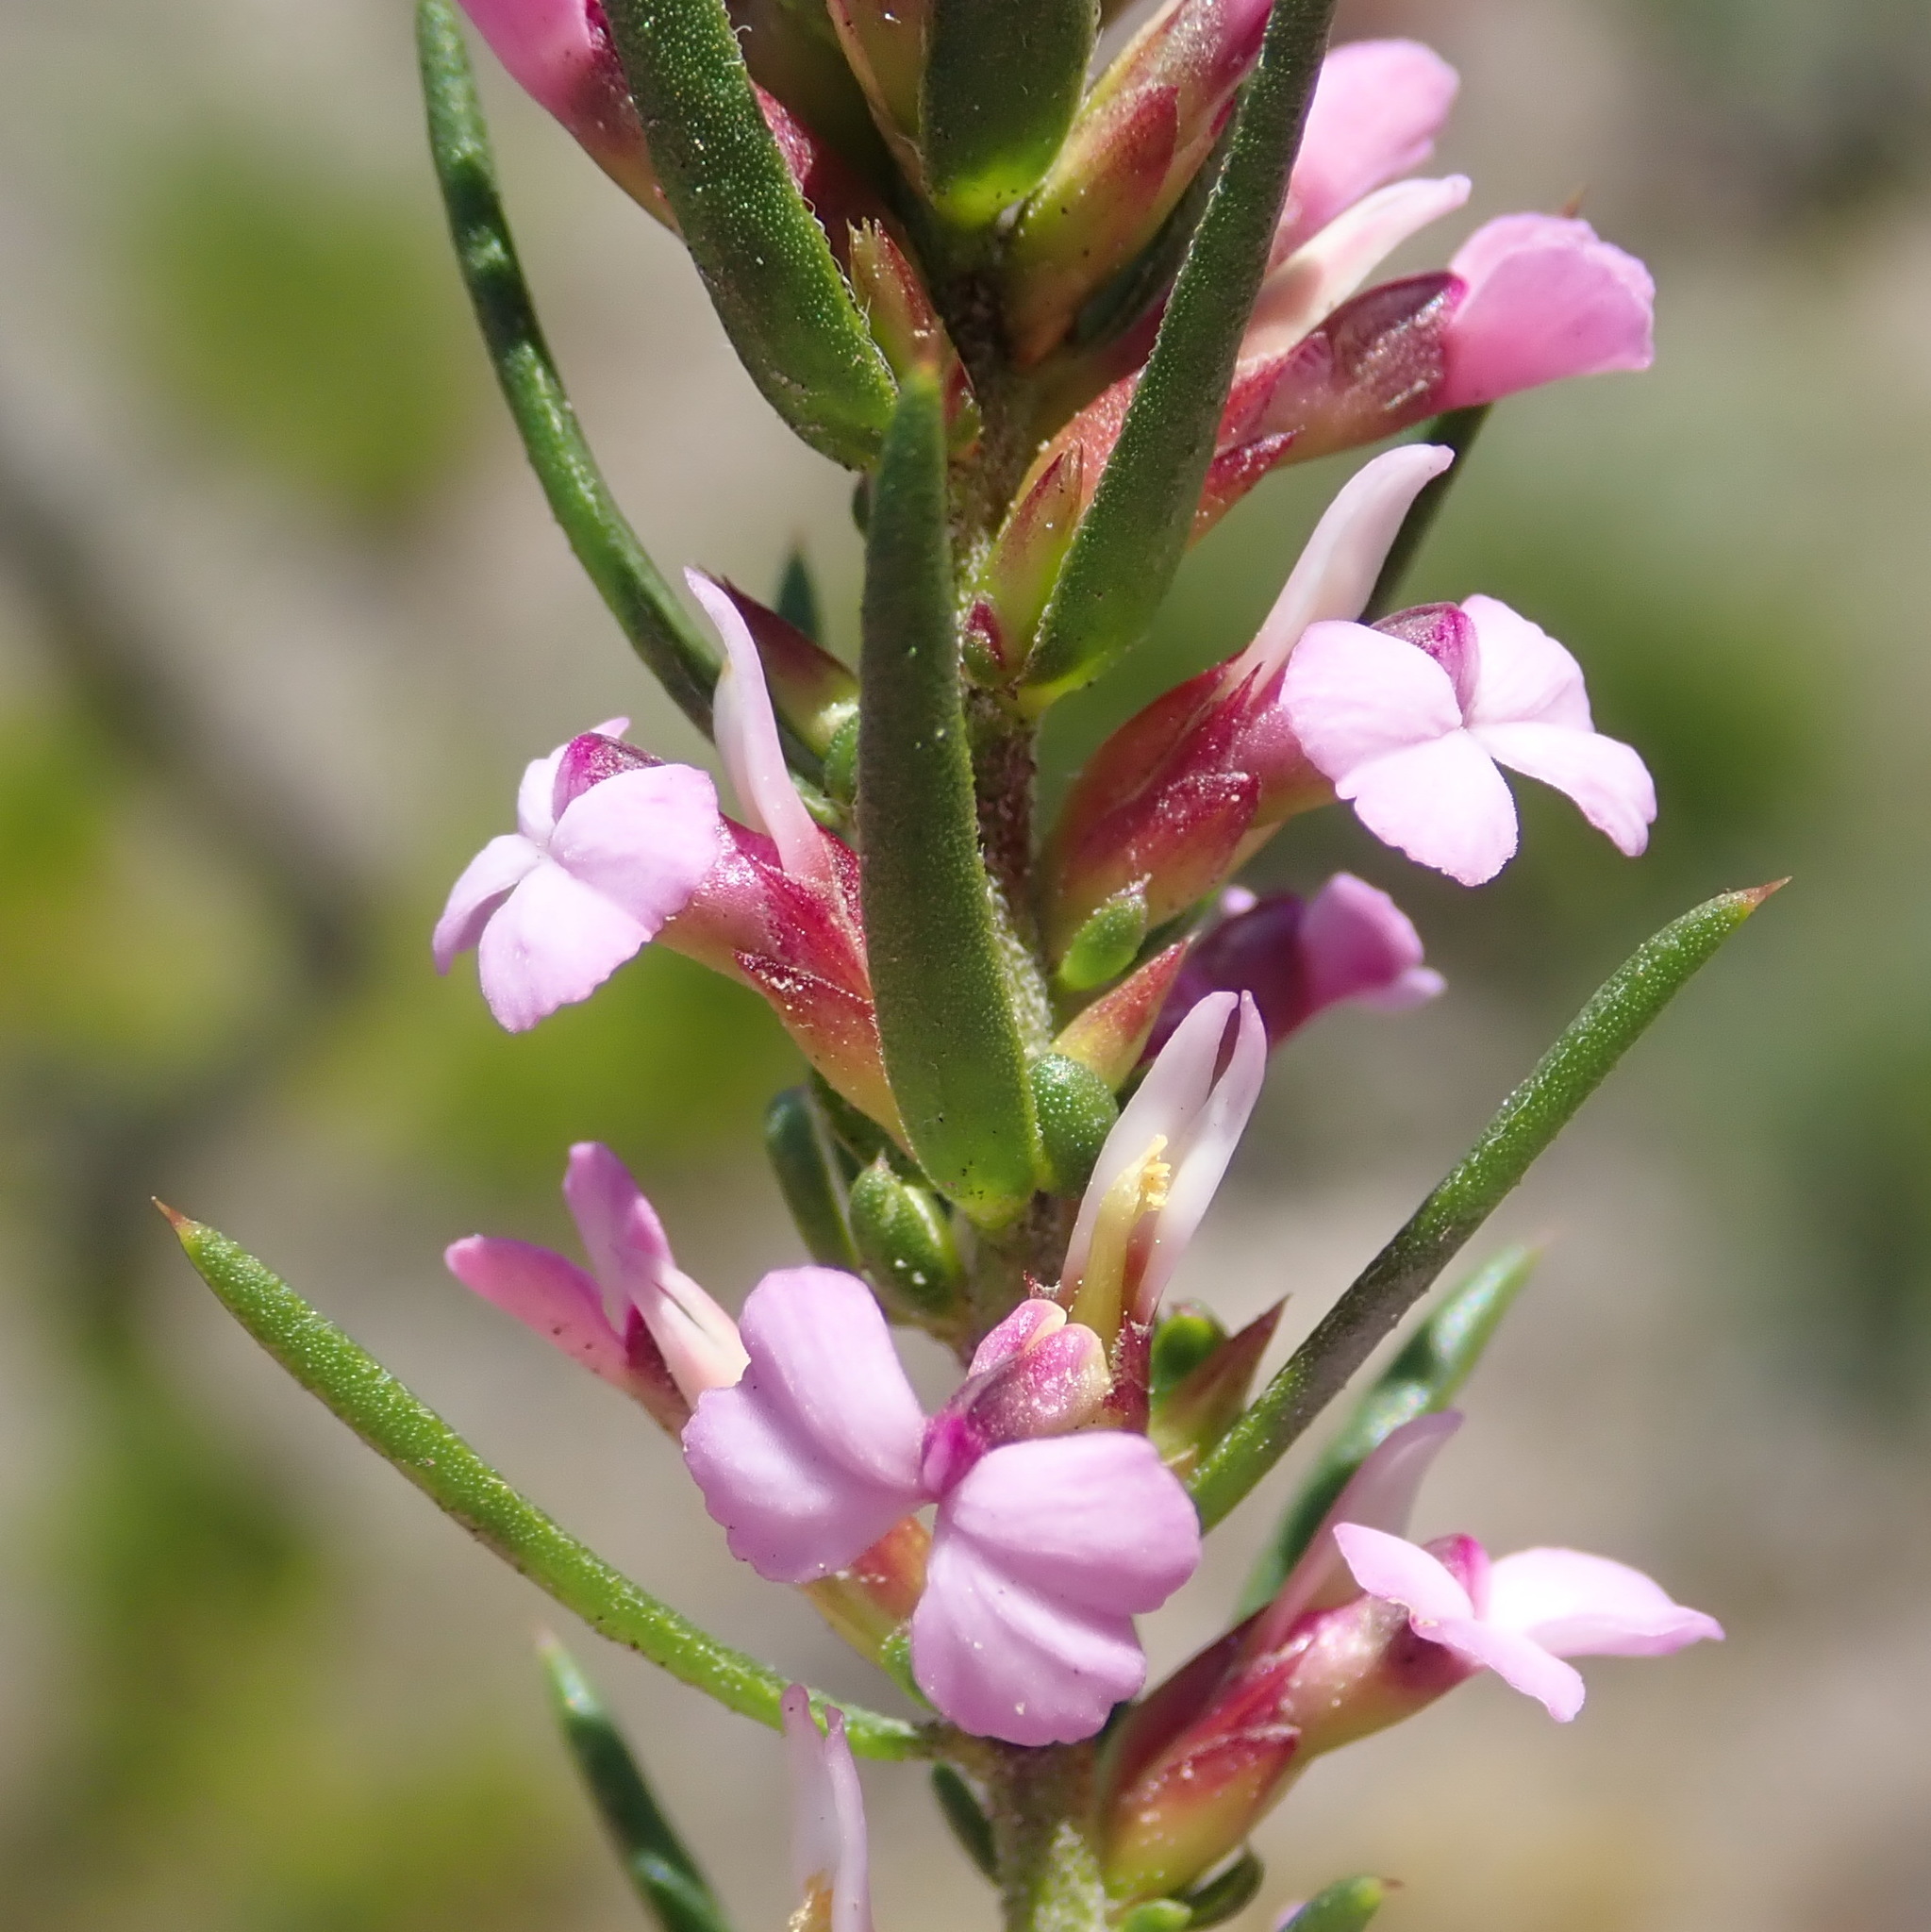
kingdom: Plantae
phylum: Tracheophyta
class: Magnoliopsida
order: Fabales
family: Polygalaceae
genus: Muraltia
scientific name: Muraltia knysnaensis
